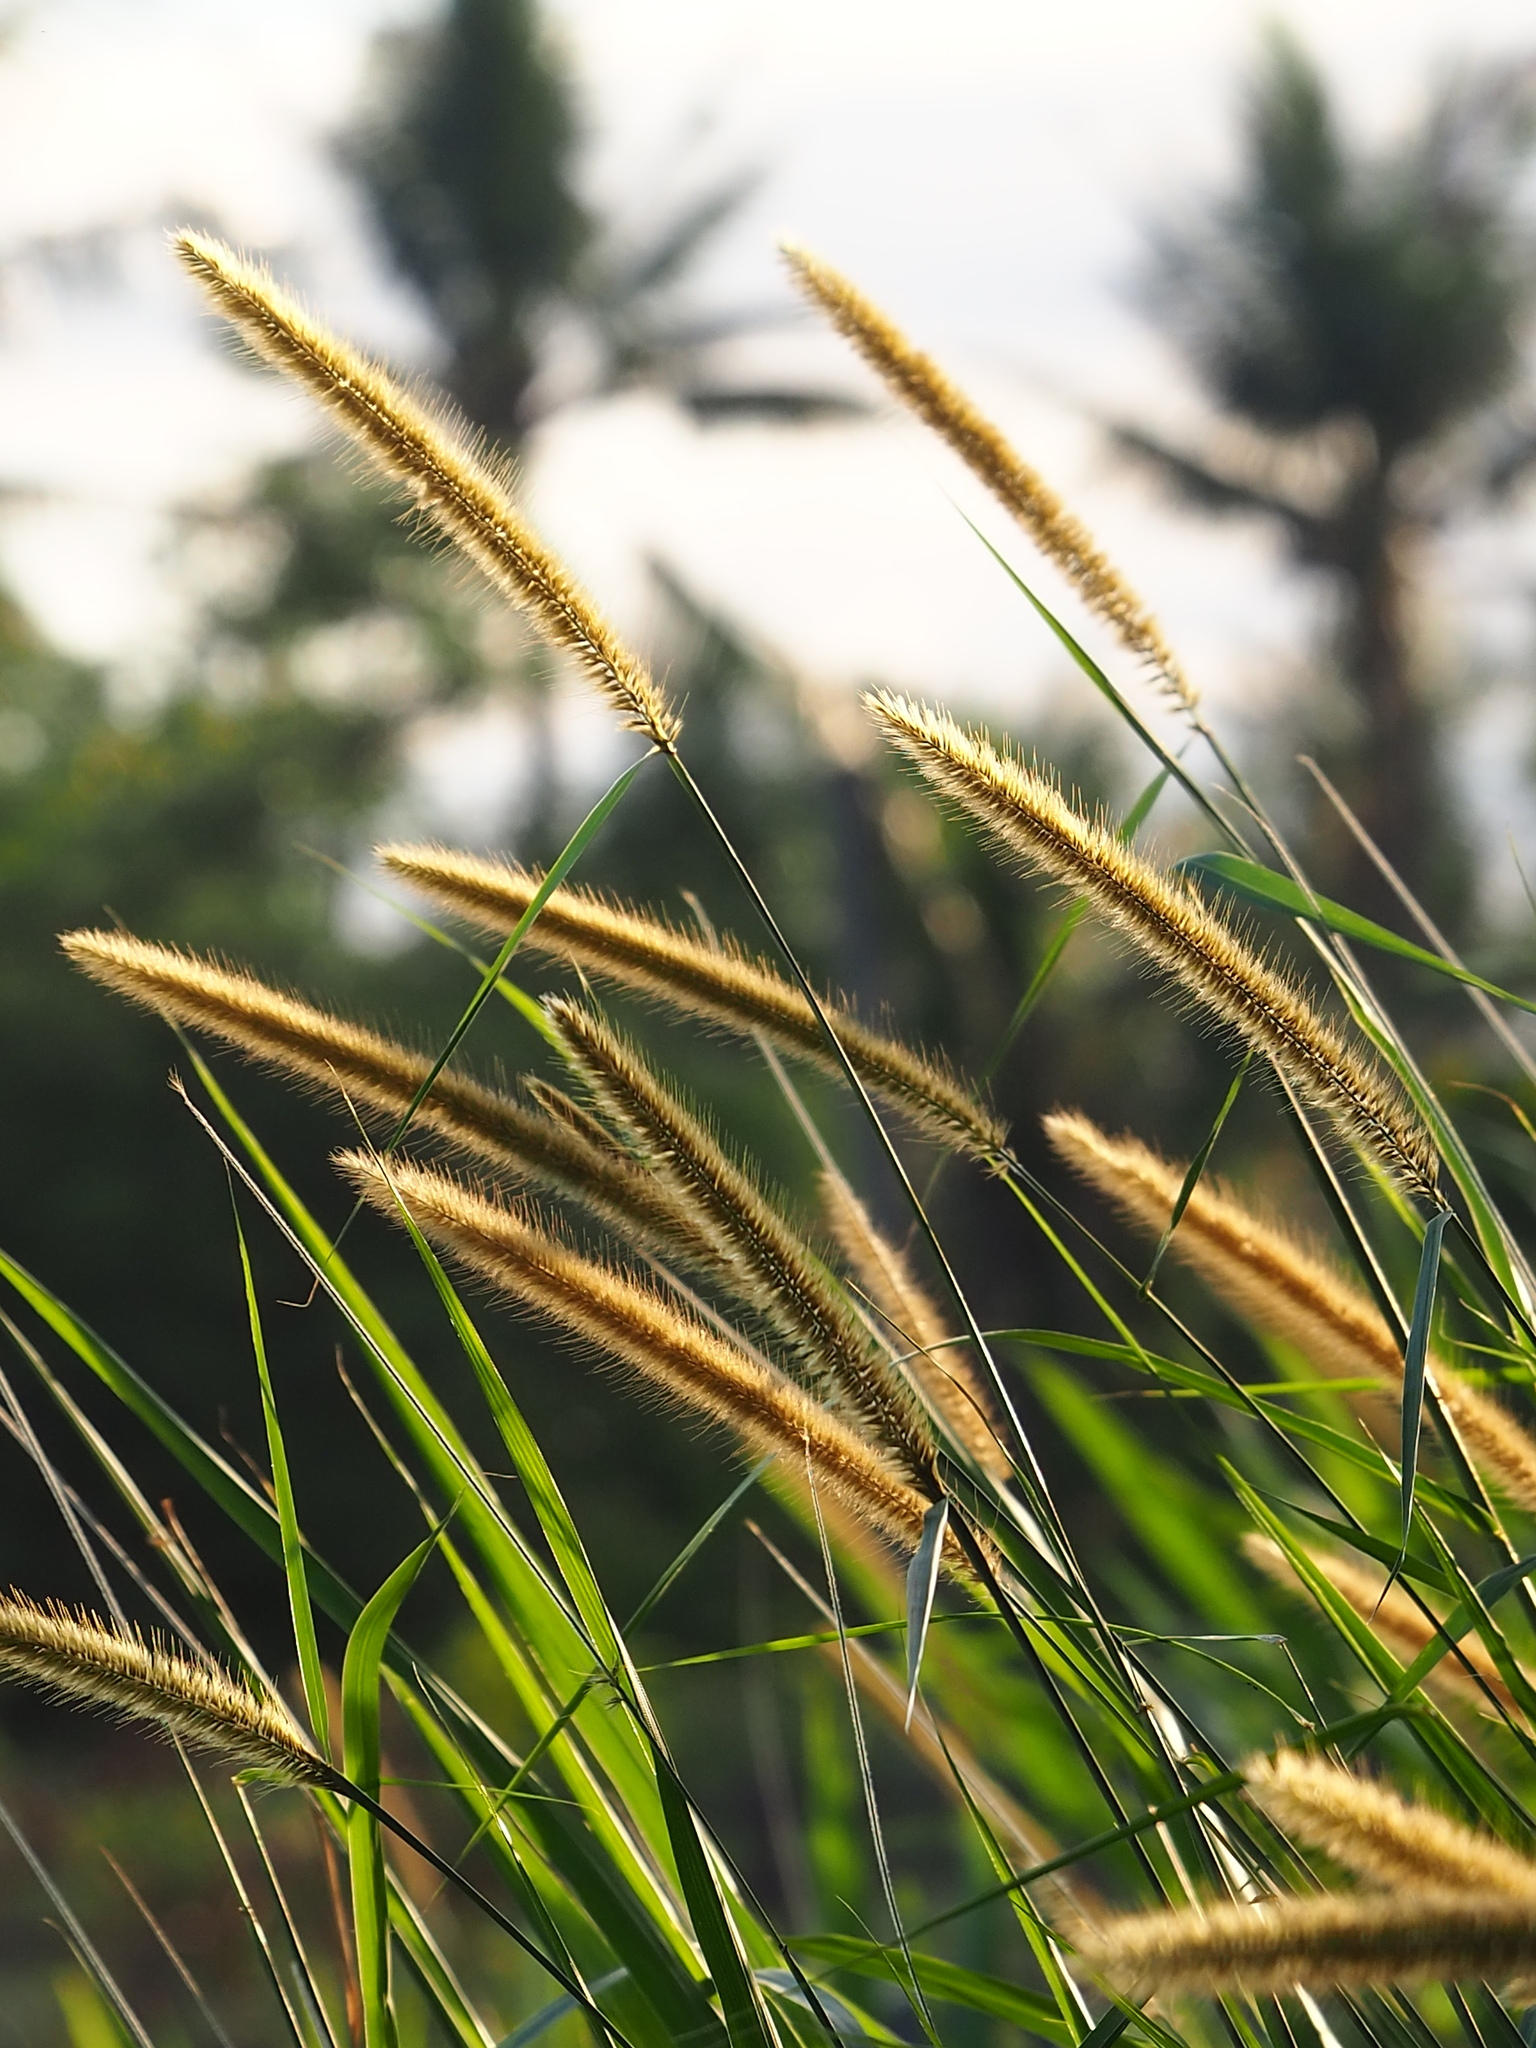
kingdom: Plantae
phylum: Tracheophyta
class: Liliopsida
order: Poales
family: Poaceae
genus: Cenchrus
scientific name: Cenchrus purpureus
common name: Elephant grass
